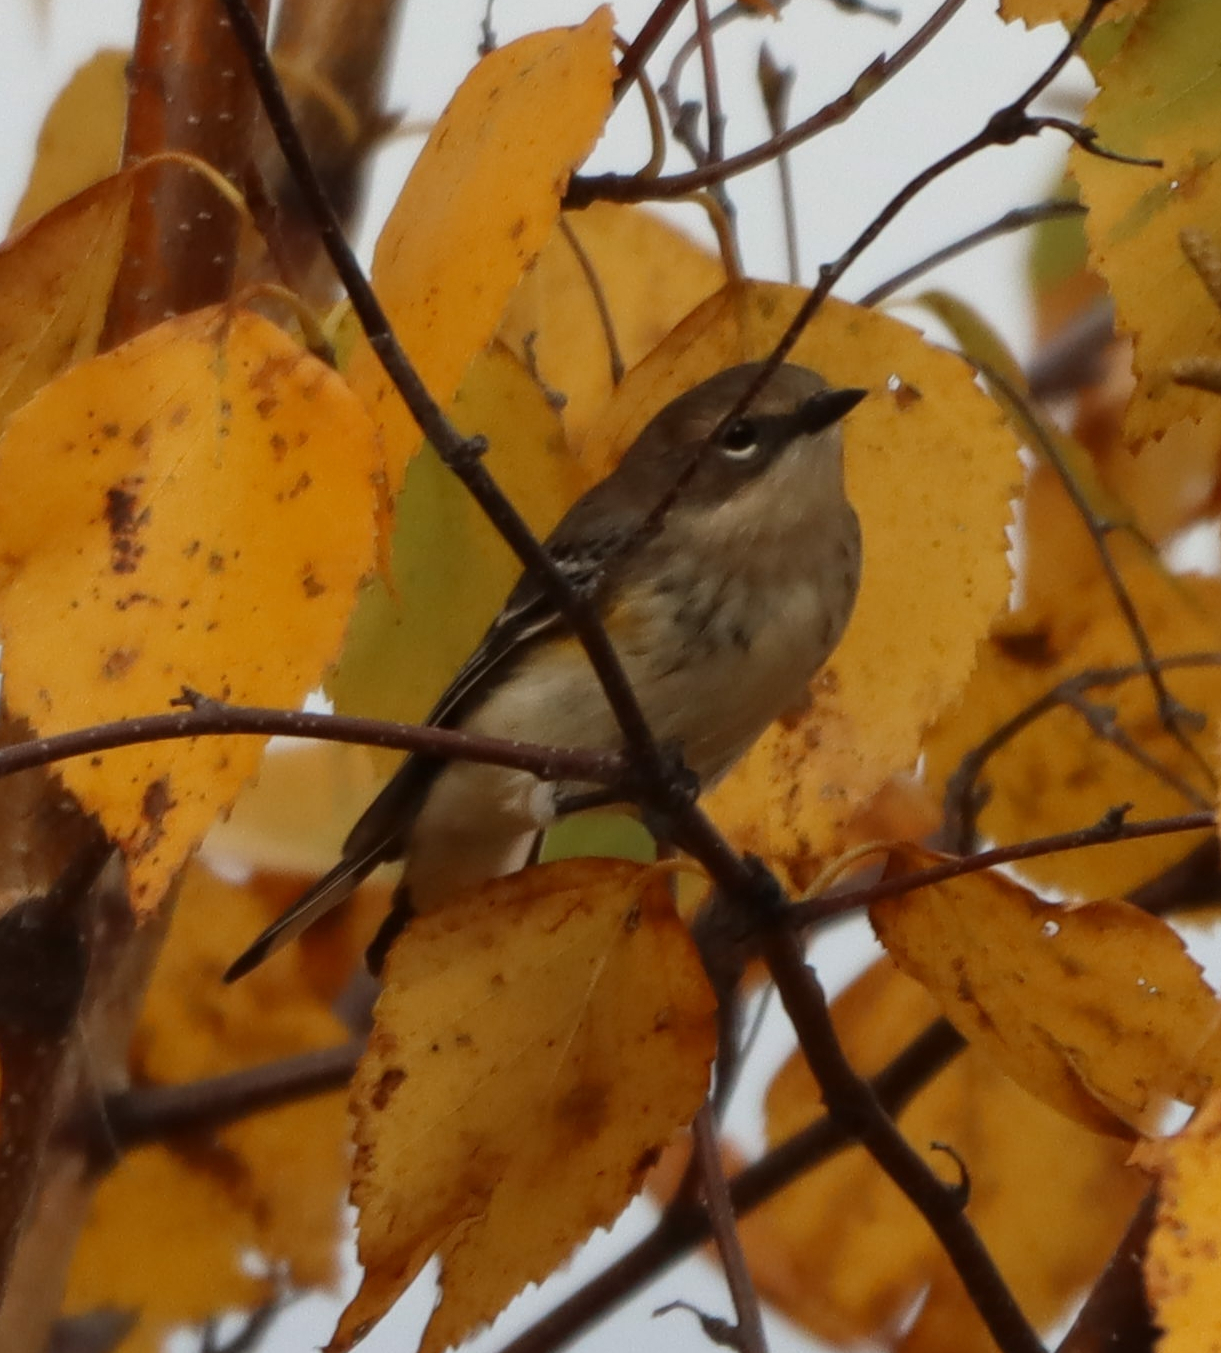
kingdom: Animalia
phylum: Chordata
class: Aves
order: Passeriformes
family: Parulidae
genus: Setophaga
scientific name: Setophaga coronata
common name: Myrtle warbler
